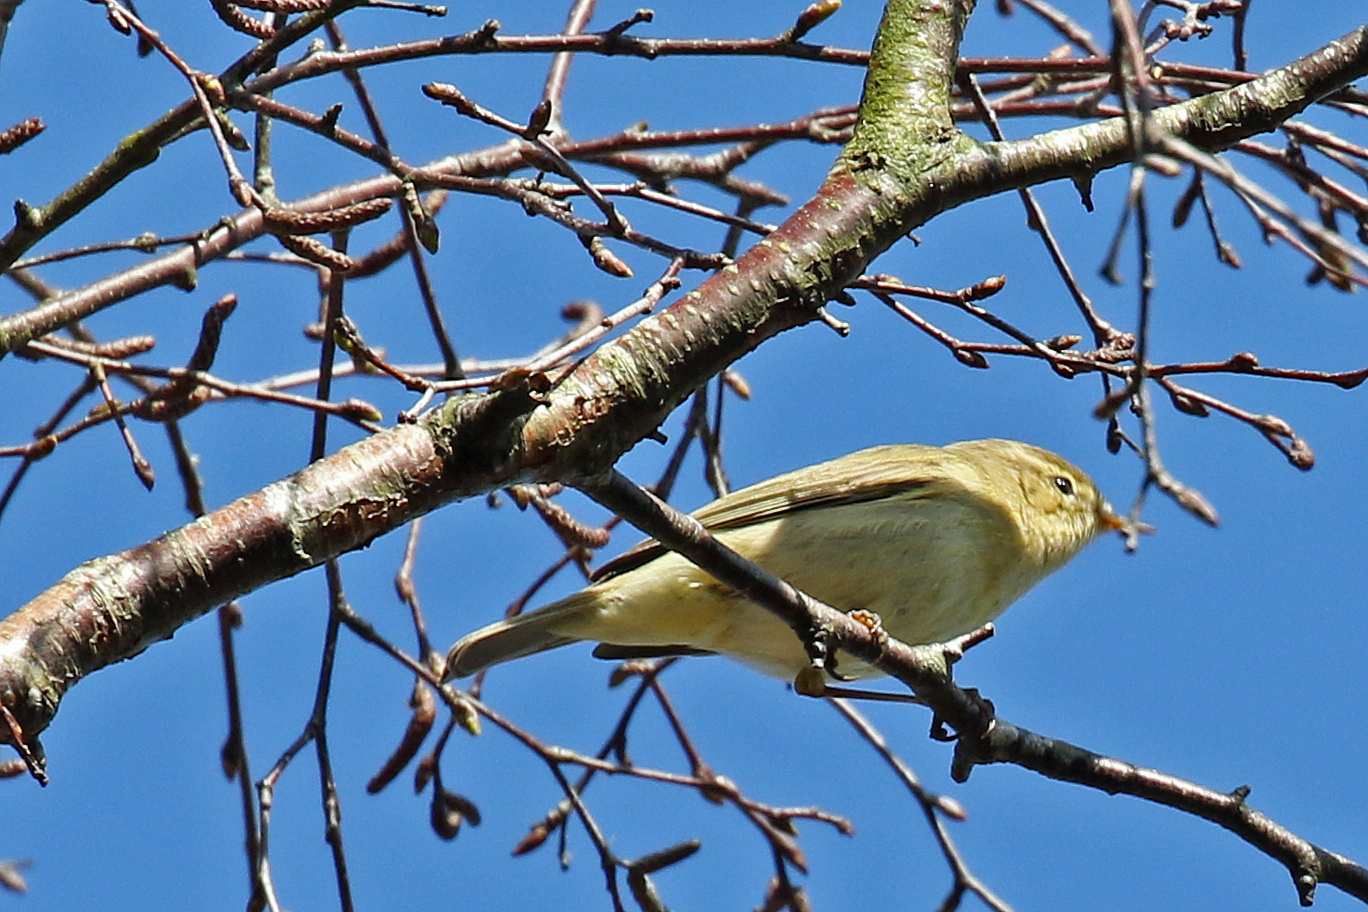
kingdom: Animalia
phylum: Chordata
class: Aves
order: Passeriformes
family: Phylloscopidae
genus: Phylloscopus
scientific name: Phylloscopus collybita
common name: Common chiffchaff
